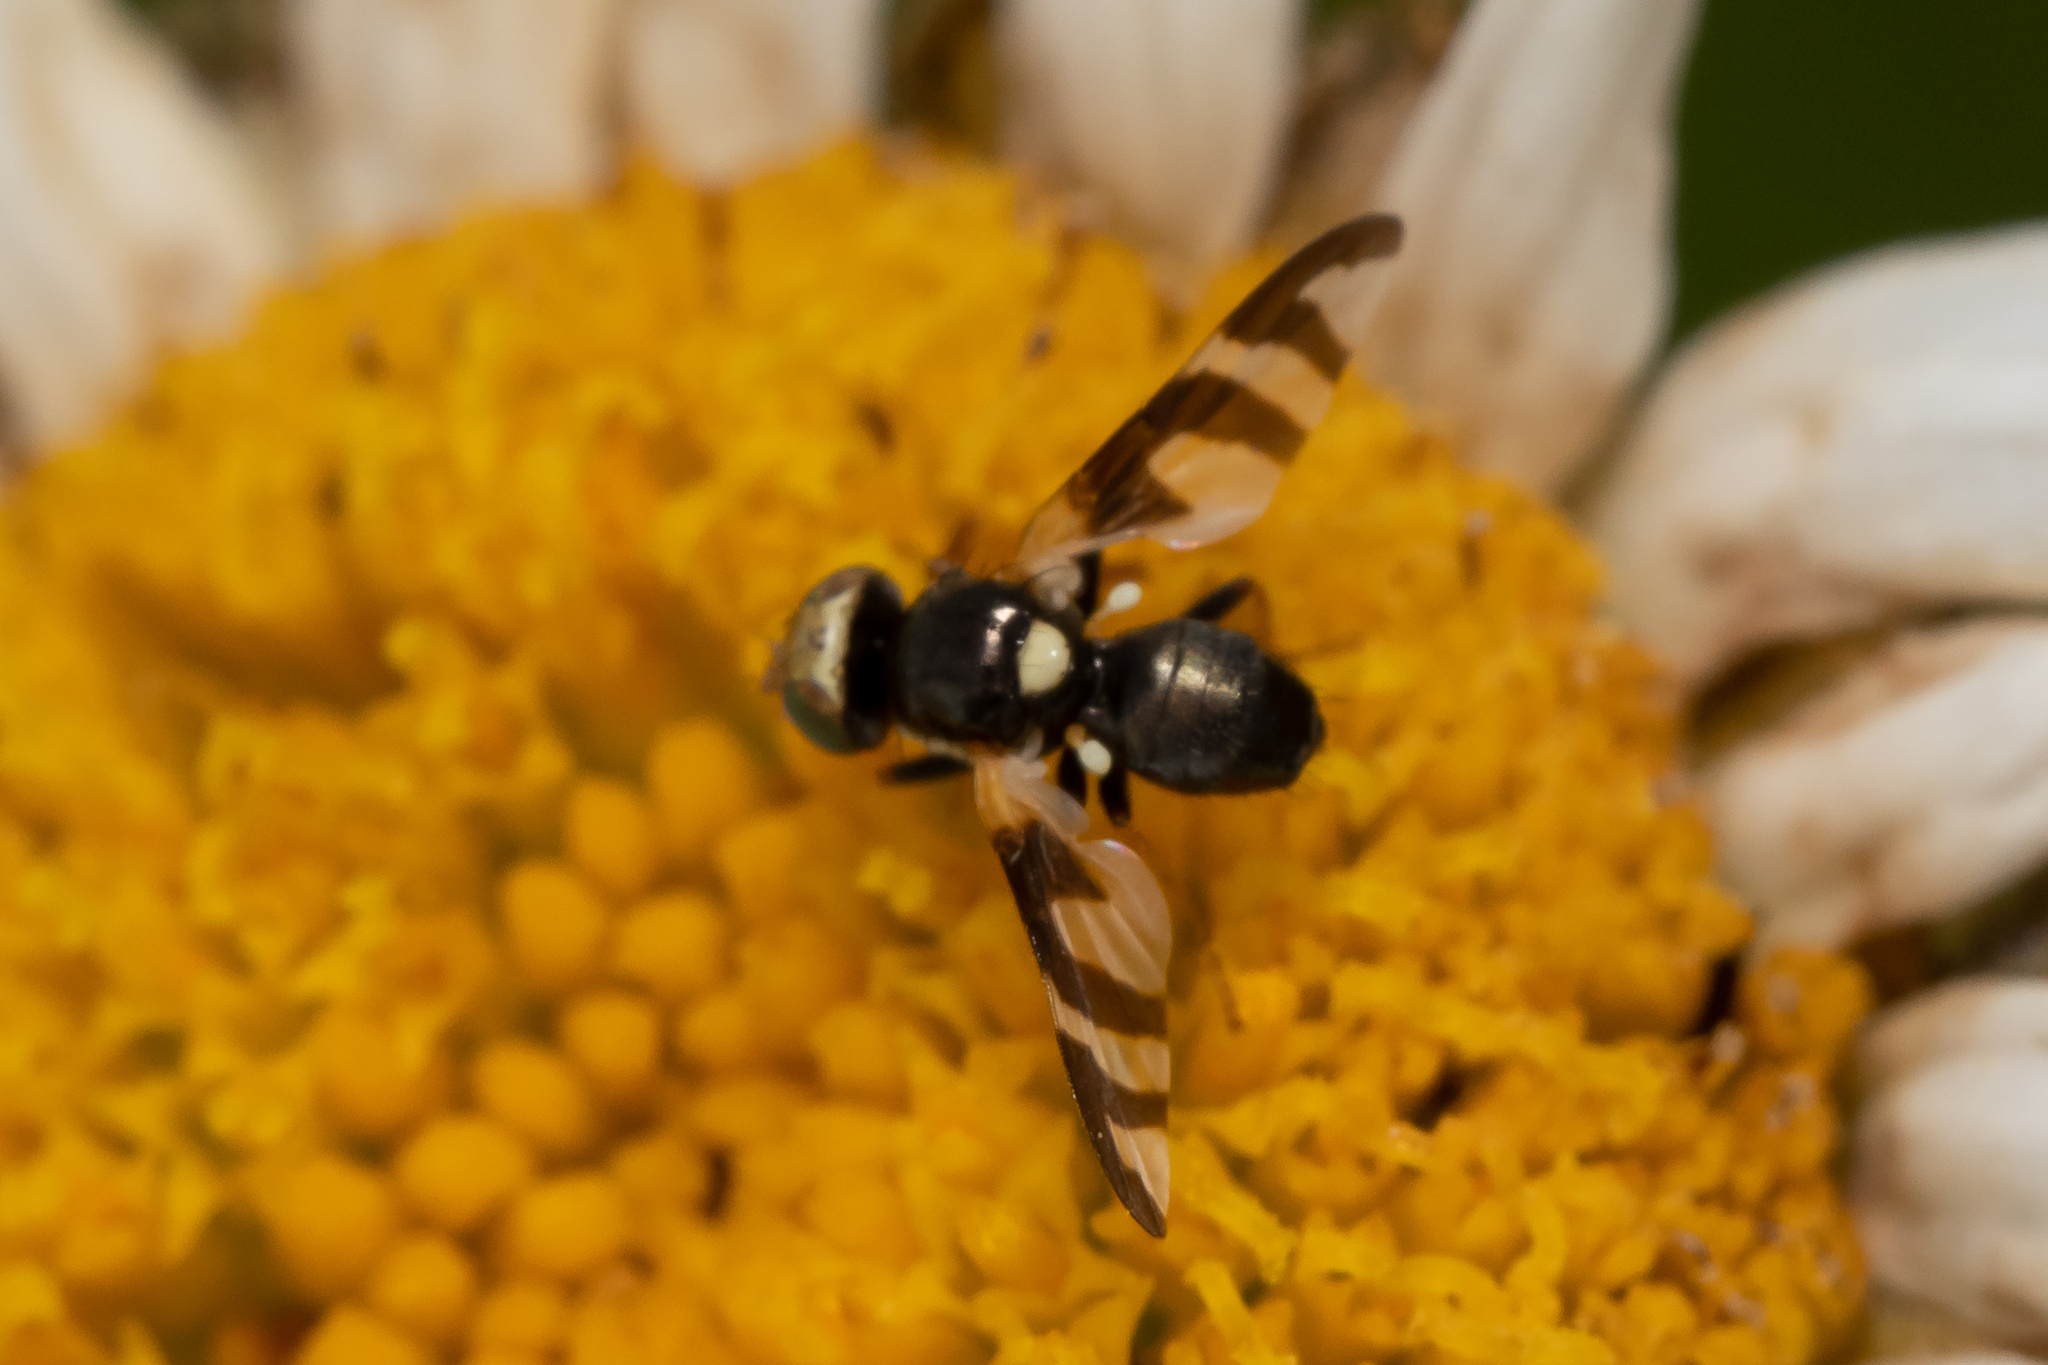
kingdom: Animalia
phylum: Arthropoda
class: Insecta
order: Diptera
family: Tephritidae
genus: Urophora
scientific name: Urophora quadrifasciata
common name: Knapweed seedhead fly
